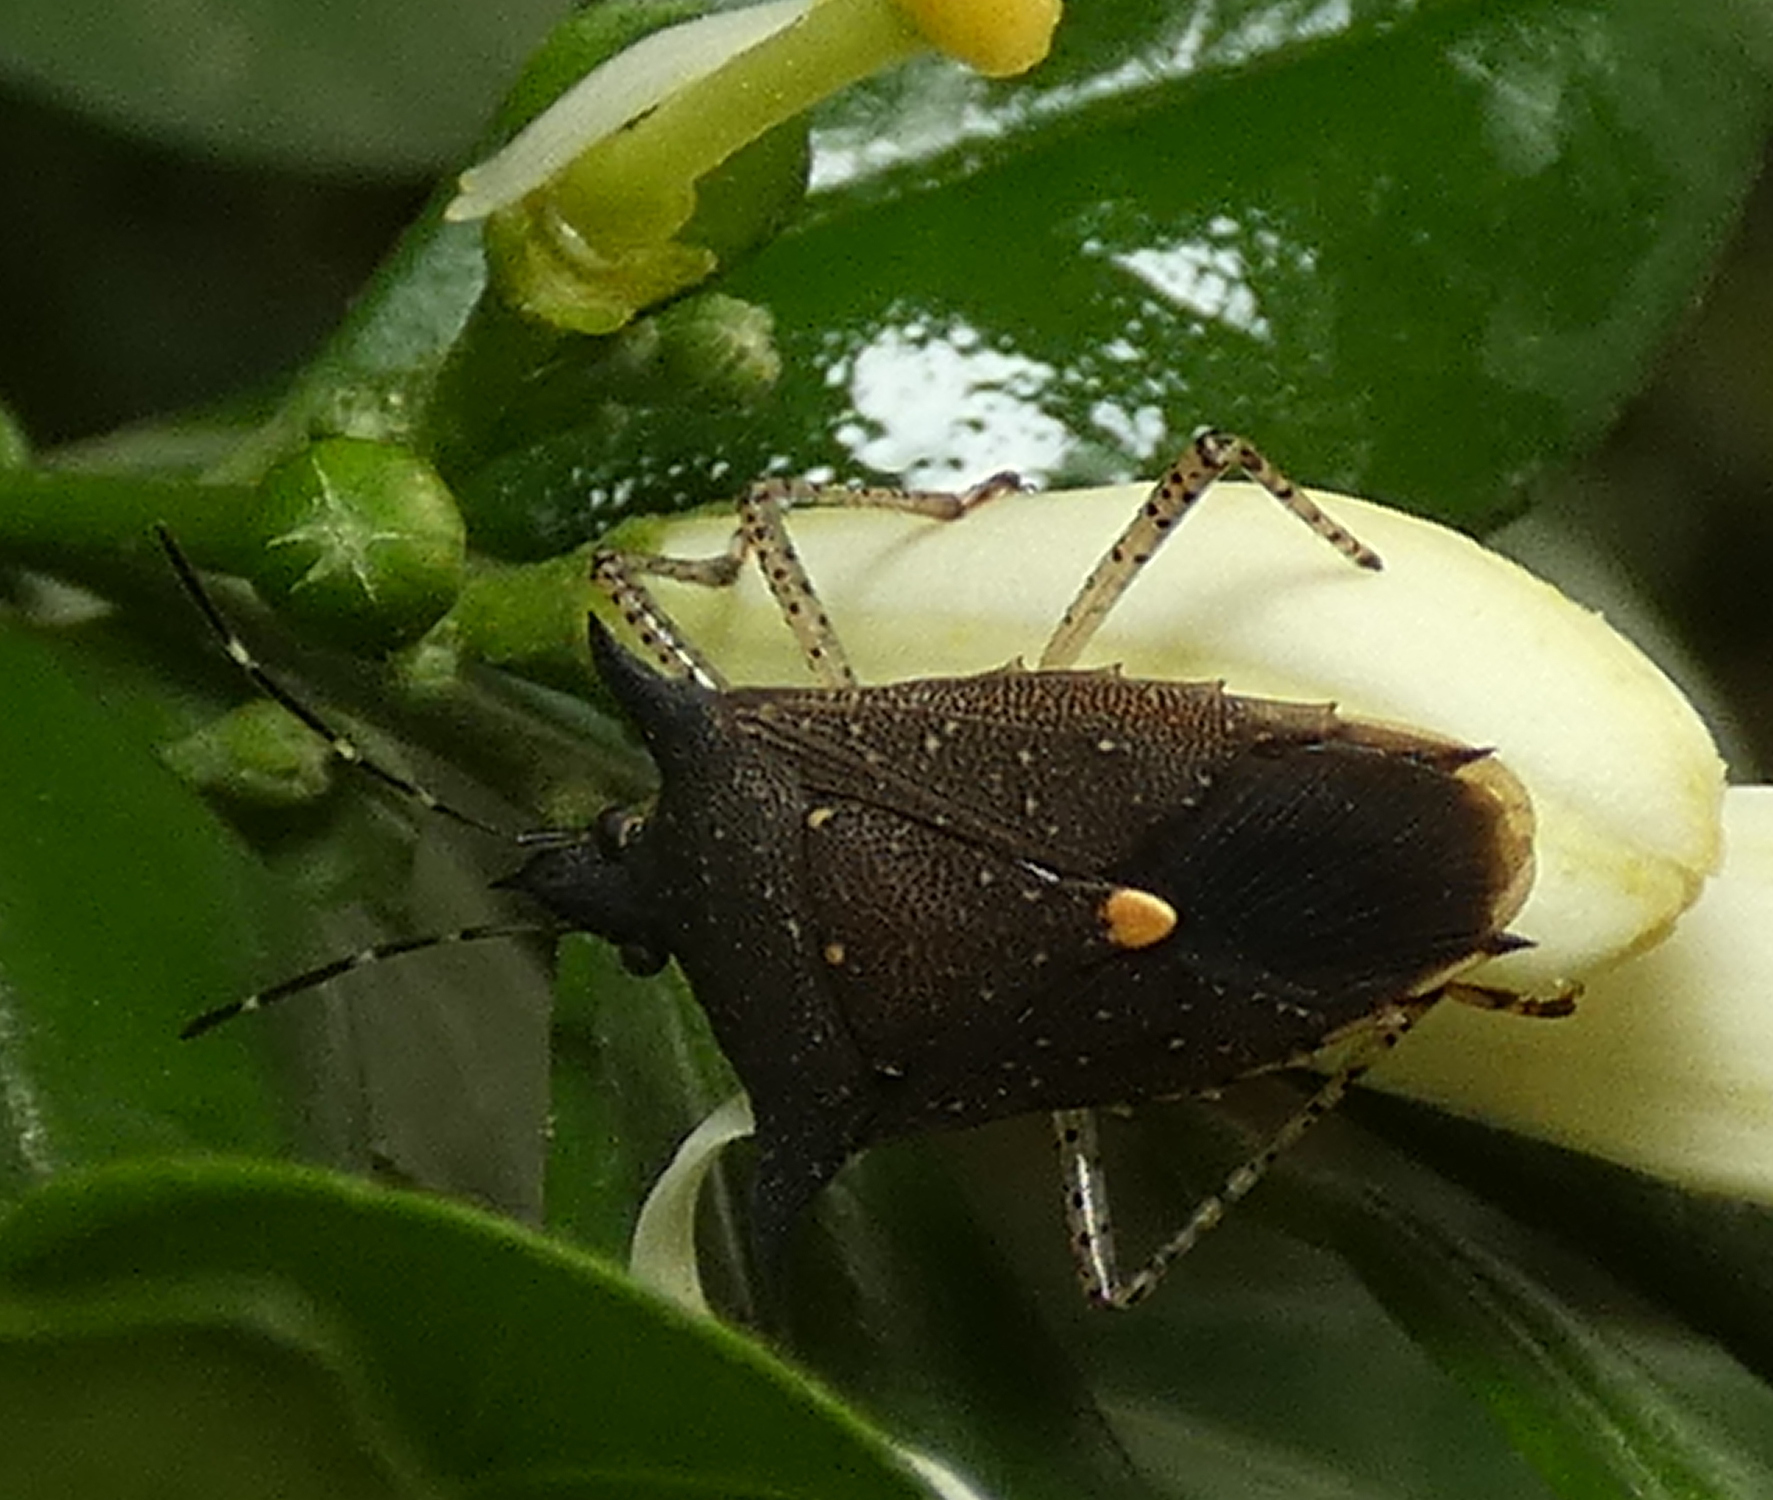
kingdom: Animalia
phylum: Arthropoda
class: Insecta
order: Hemiptera
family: Pentatomidae
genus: Proxys
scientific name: Proxys albopunctulatus
